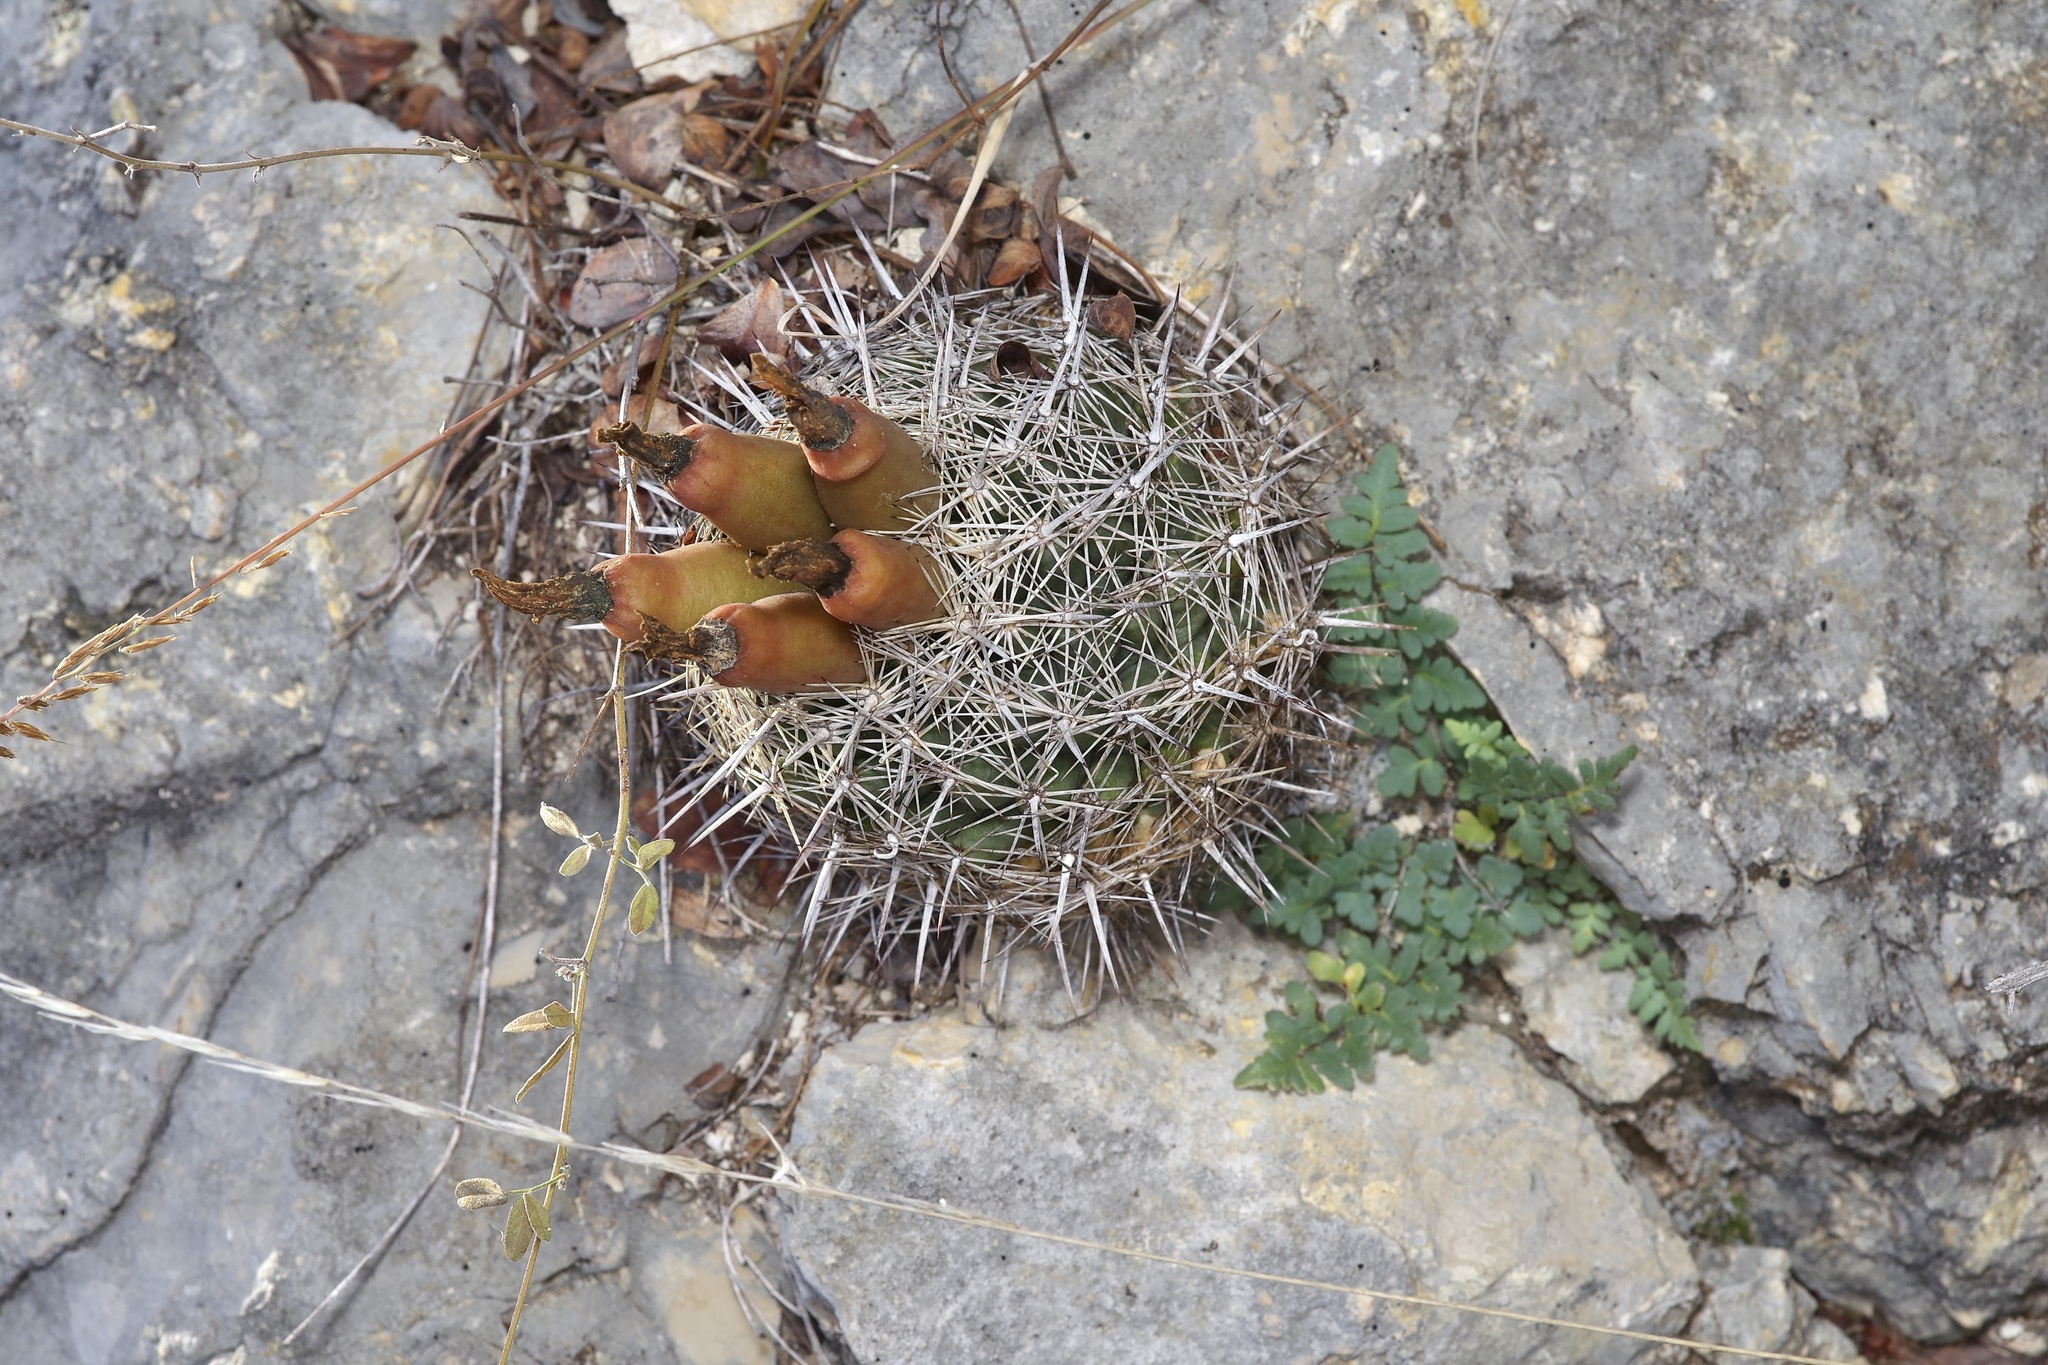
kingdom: Plantae
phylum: Tracheophyta
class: Magnoliopsida
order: Caryophyllales
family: Cactaceae
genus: Coryphantha
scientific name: Coryphantha sulcata
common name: Finger cactus
